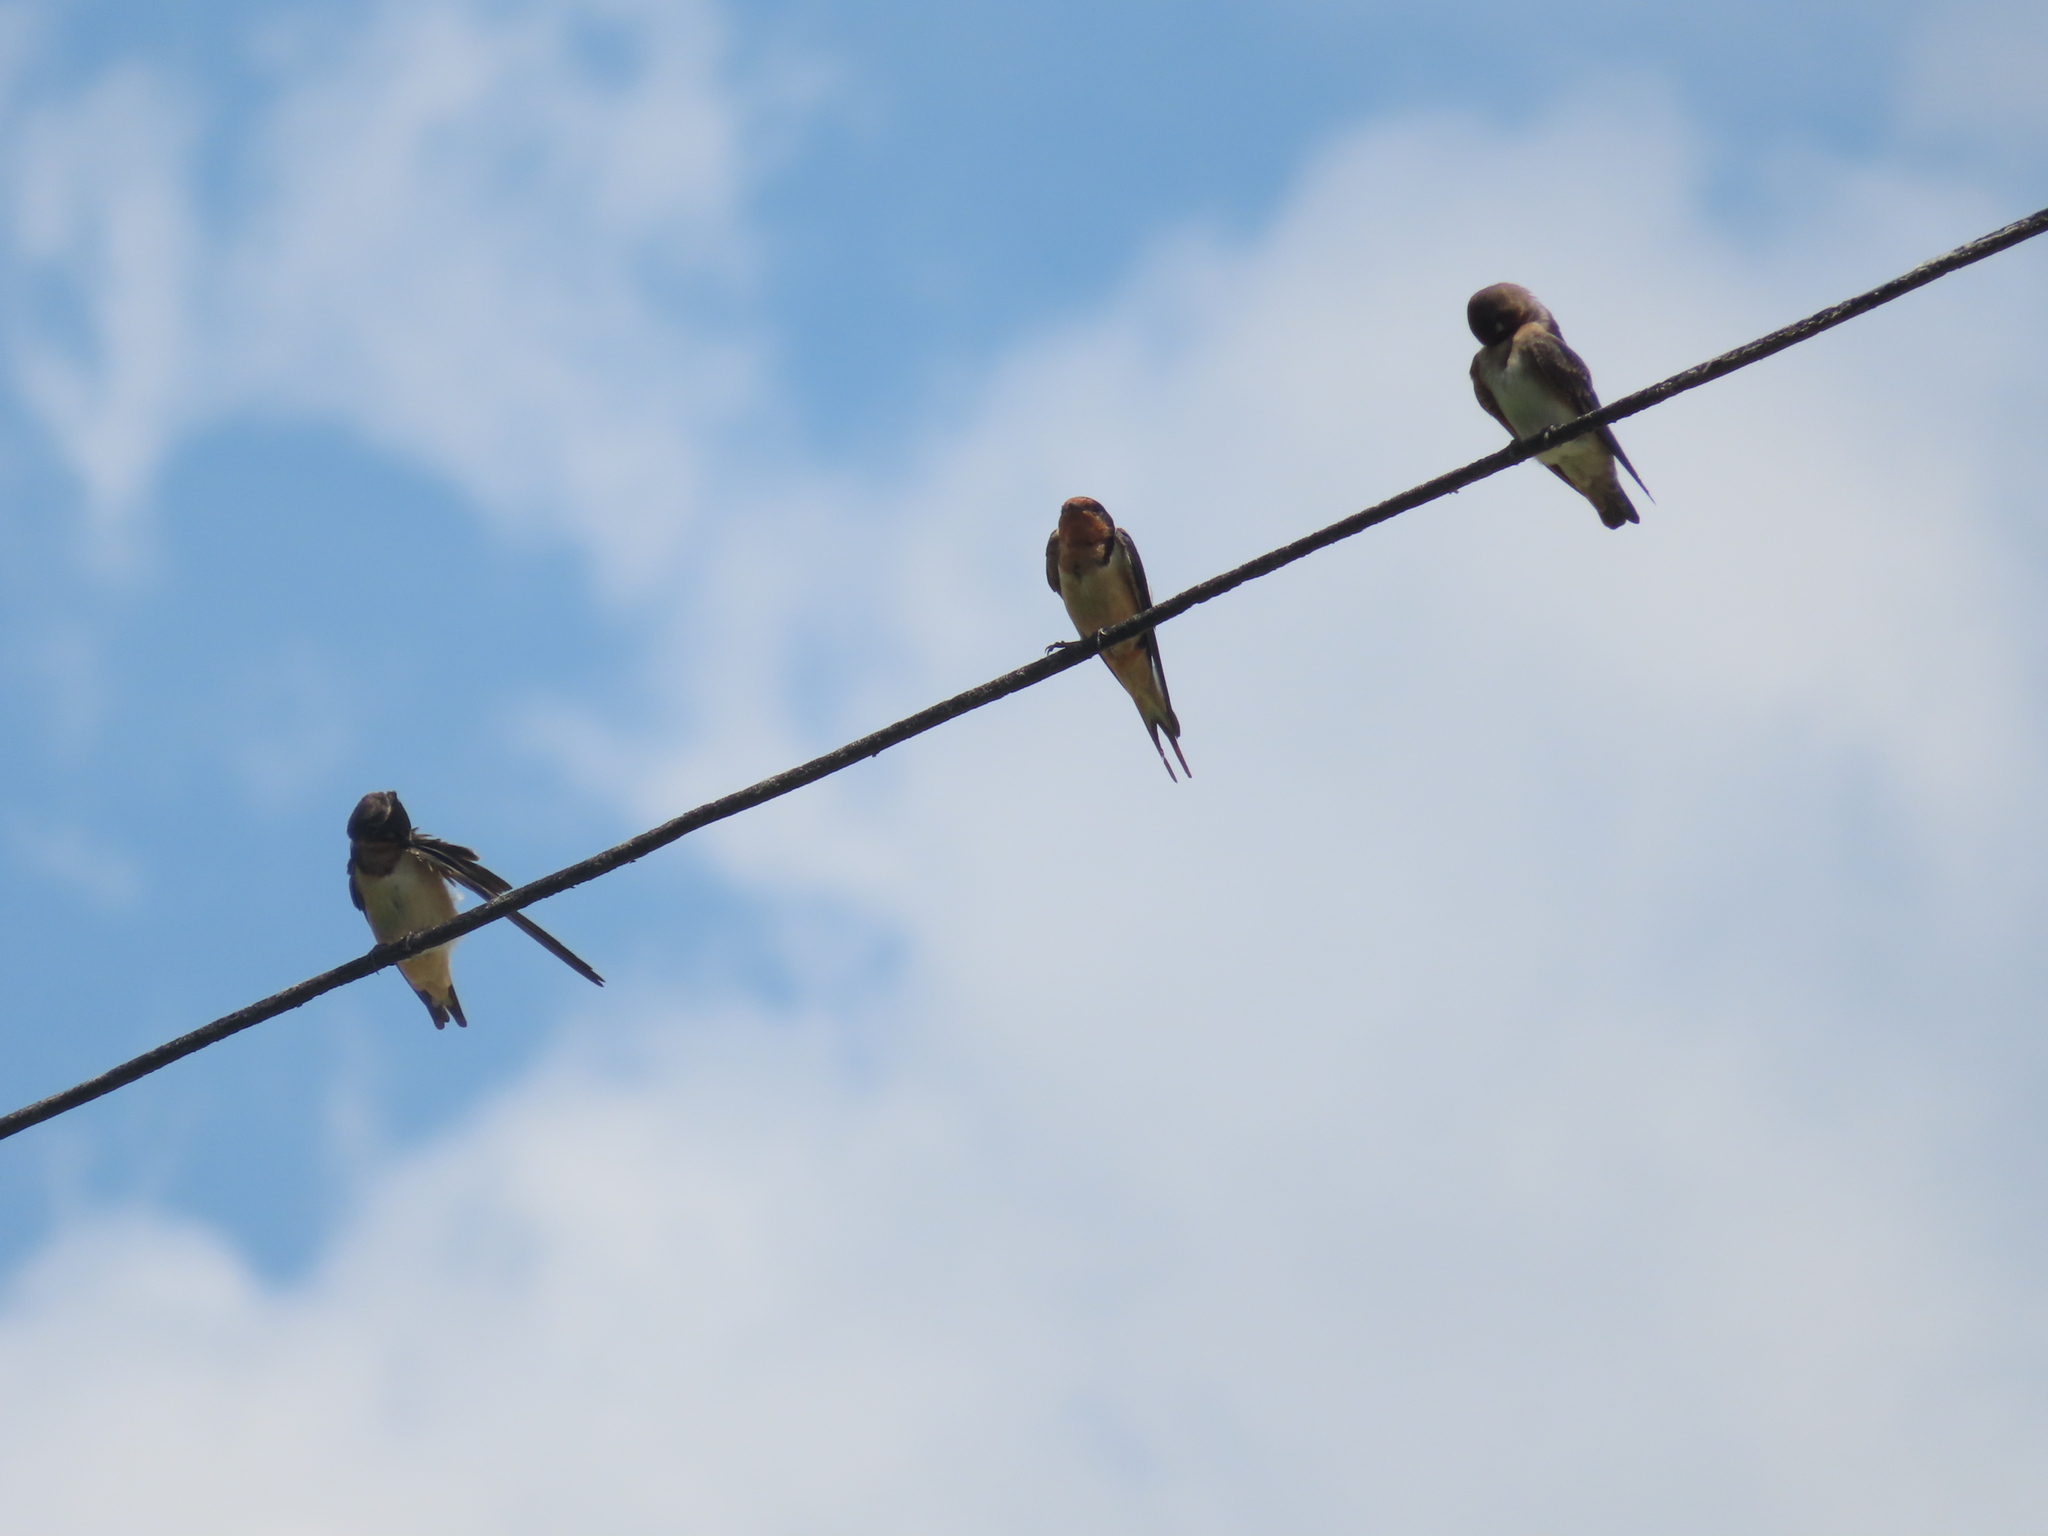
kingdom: Animalia
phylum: Chordata
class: Aves
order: Passeriformes
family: Hirundinidae
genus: Stelgidopteryx
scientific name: Stelgidopteryx serripennis
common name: Northern rough-winged swallow
